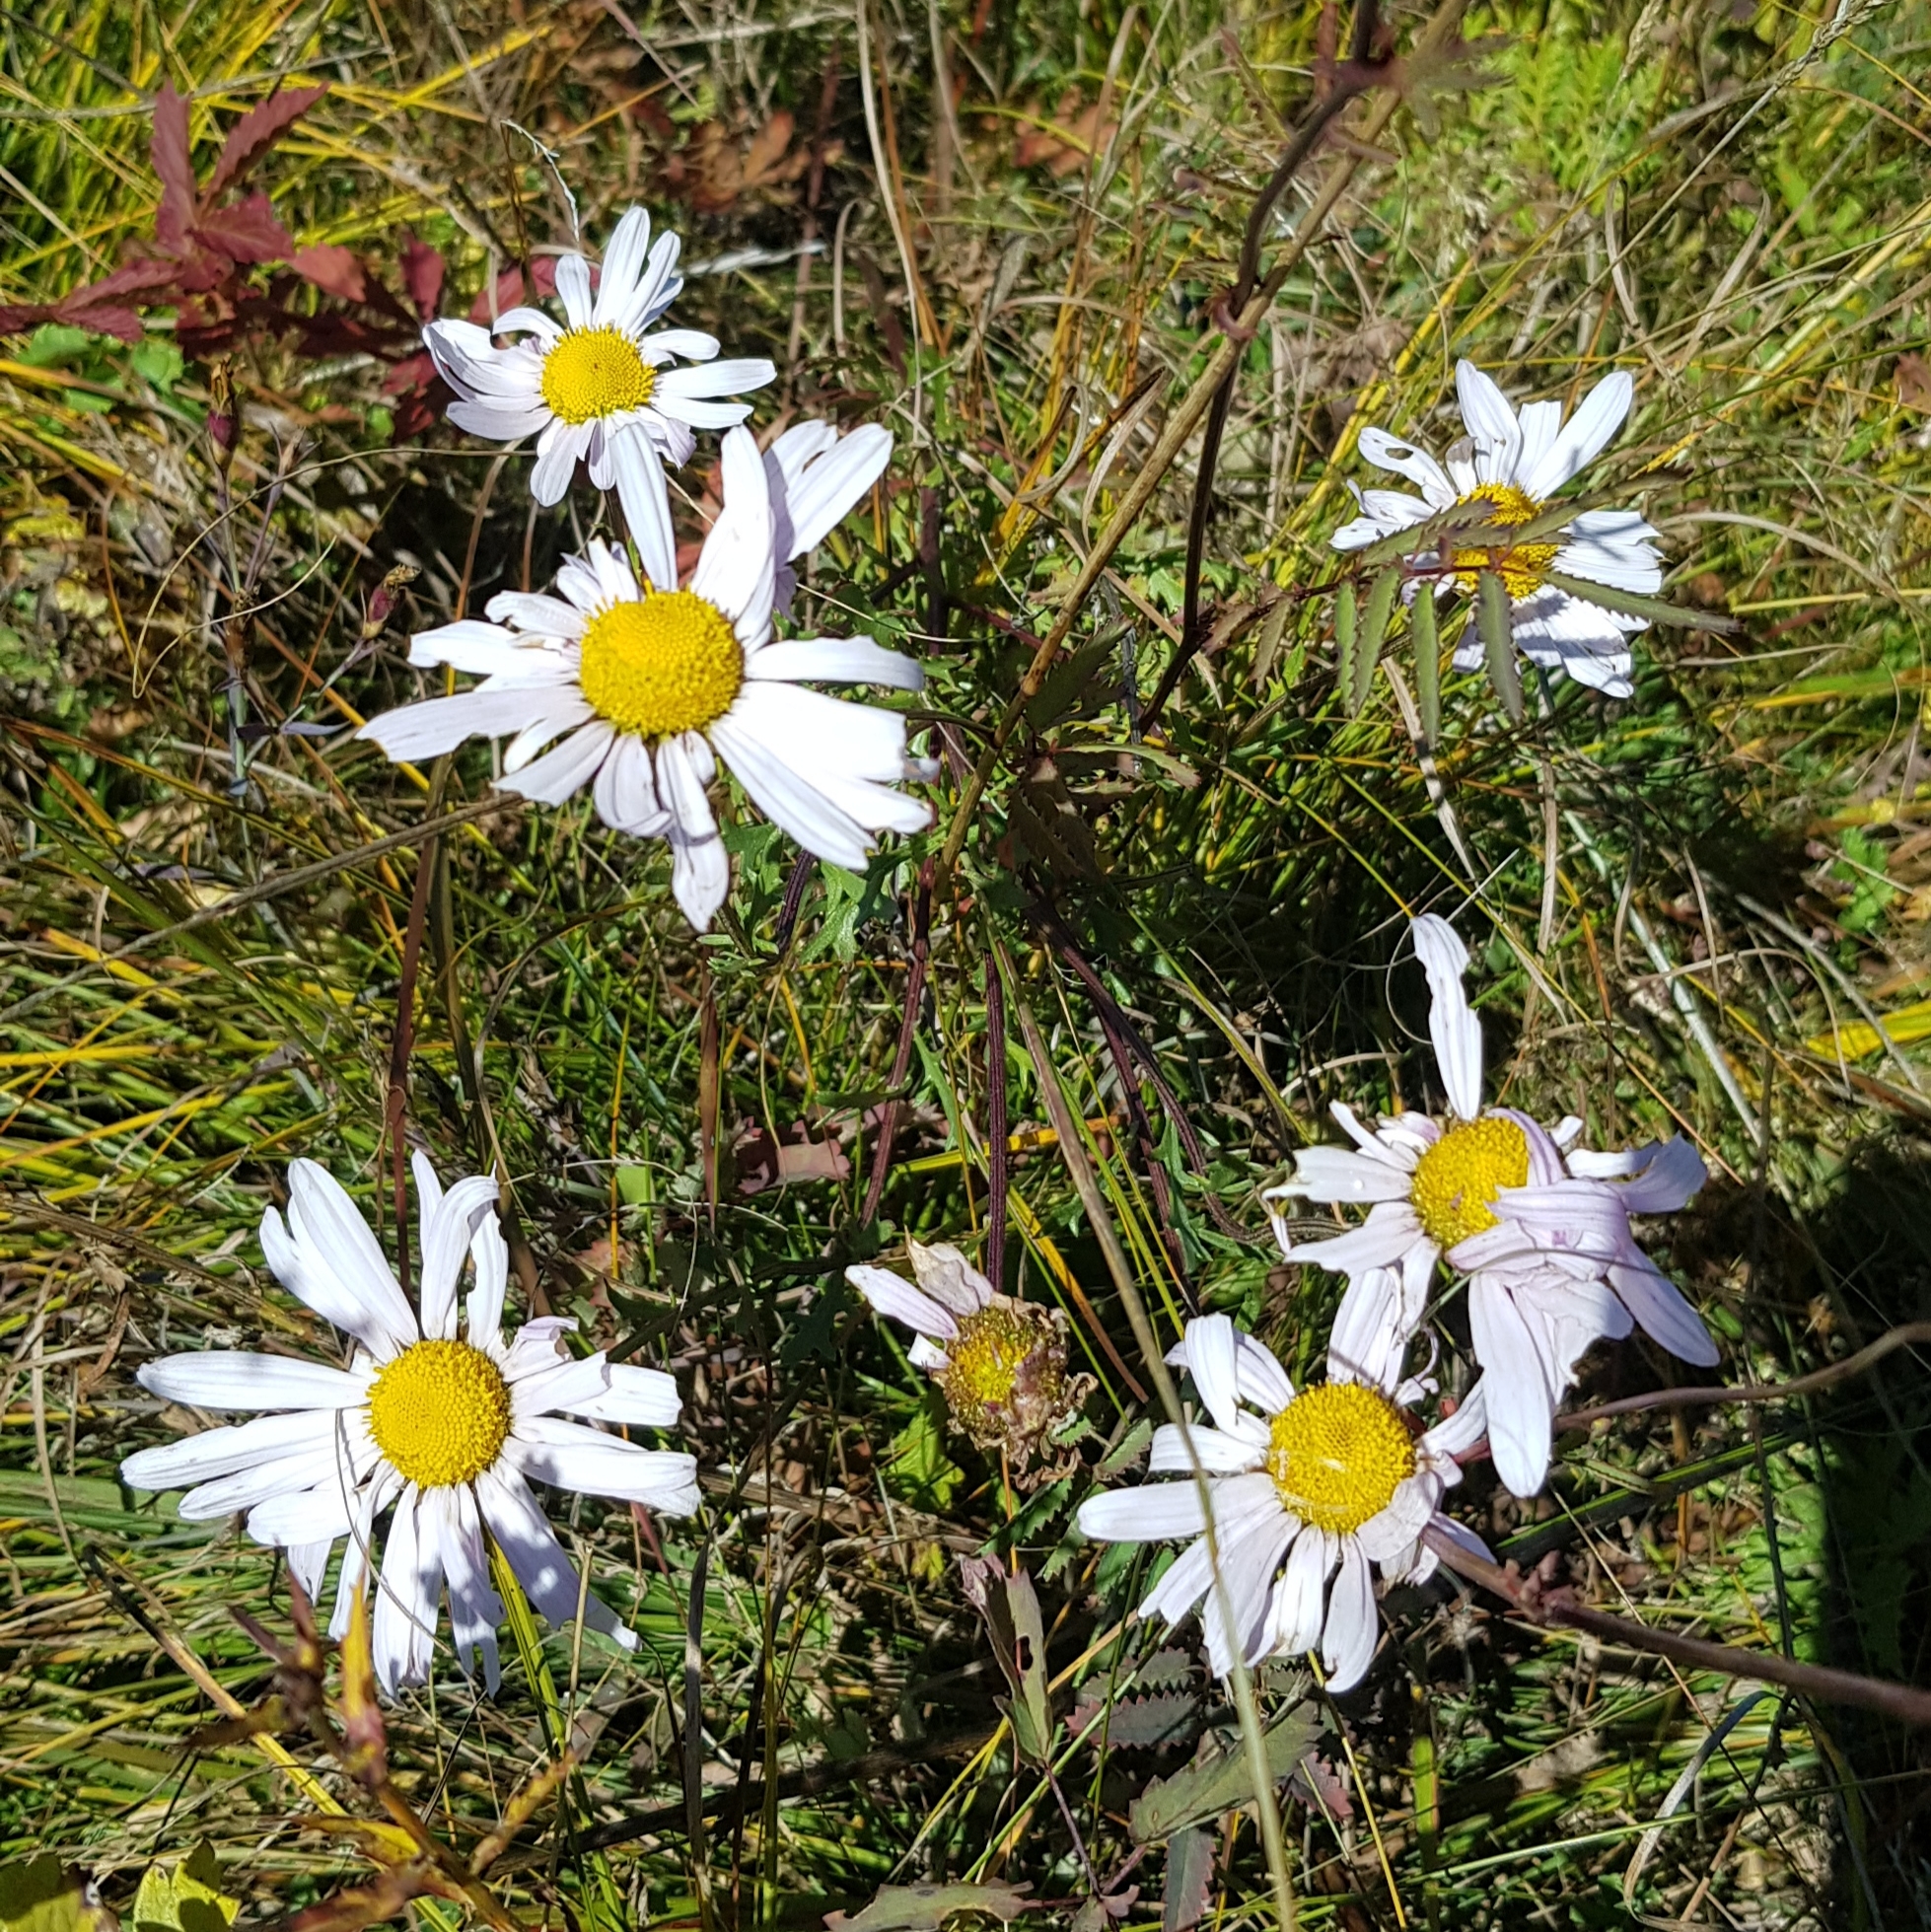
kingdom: Plantae
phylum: Tracheophyta
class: Magnoliopsida
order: Asterales
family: Asteraceae
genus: Chrysanthemum
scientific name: Chrysanthemum zawadzkii
